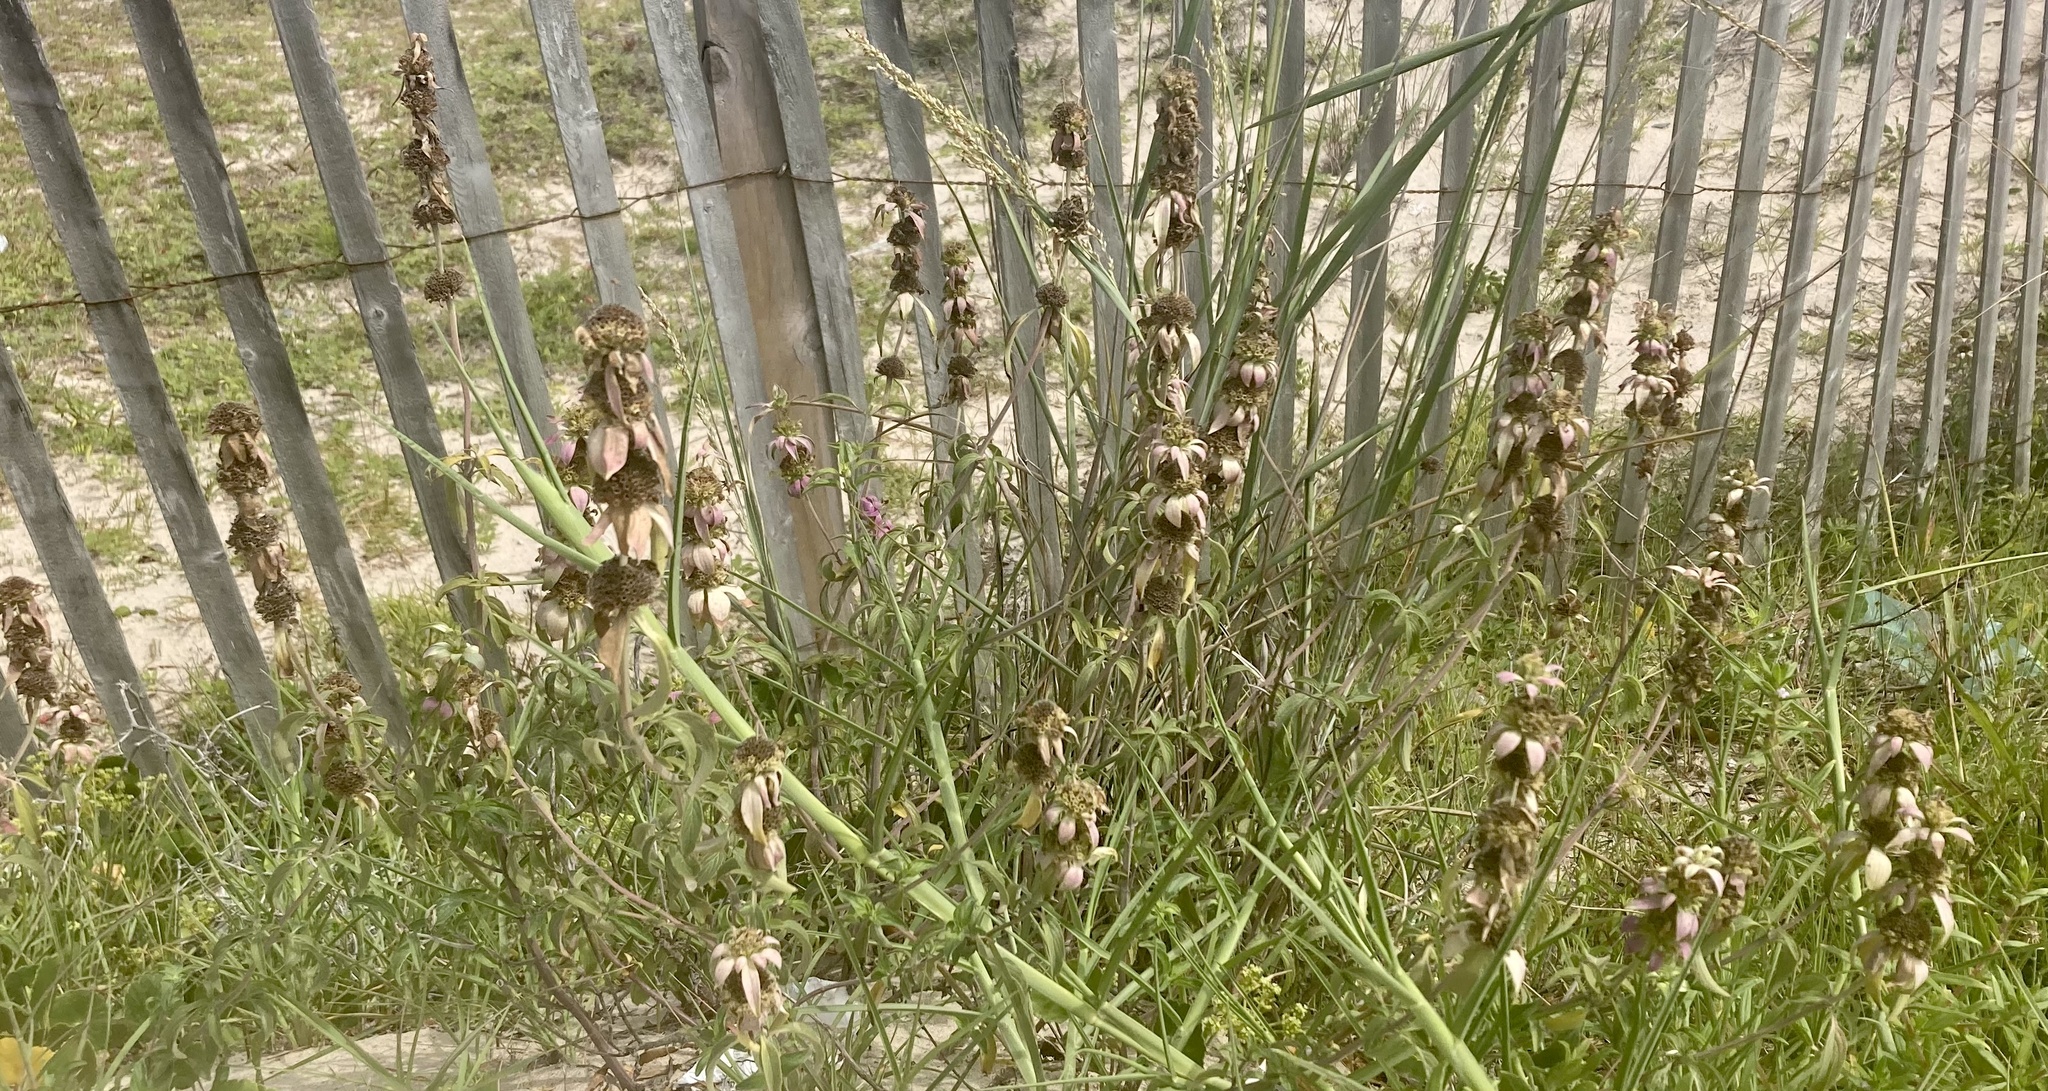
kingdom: Plantae
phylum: Tracheophyta
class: Magnoliopsida
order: Lamiales
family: Lamiaceae
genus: Monarda
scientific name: Monarda punctata
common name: Dotted monarda
